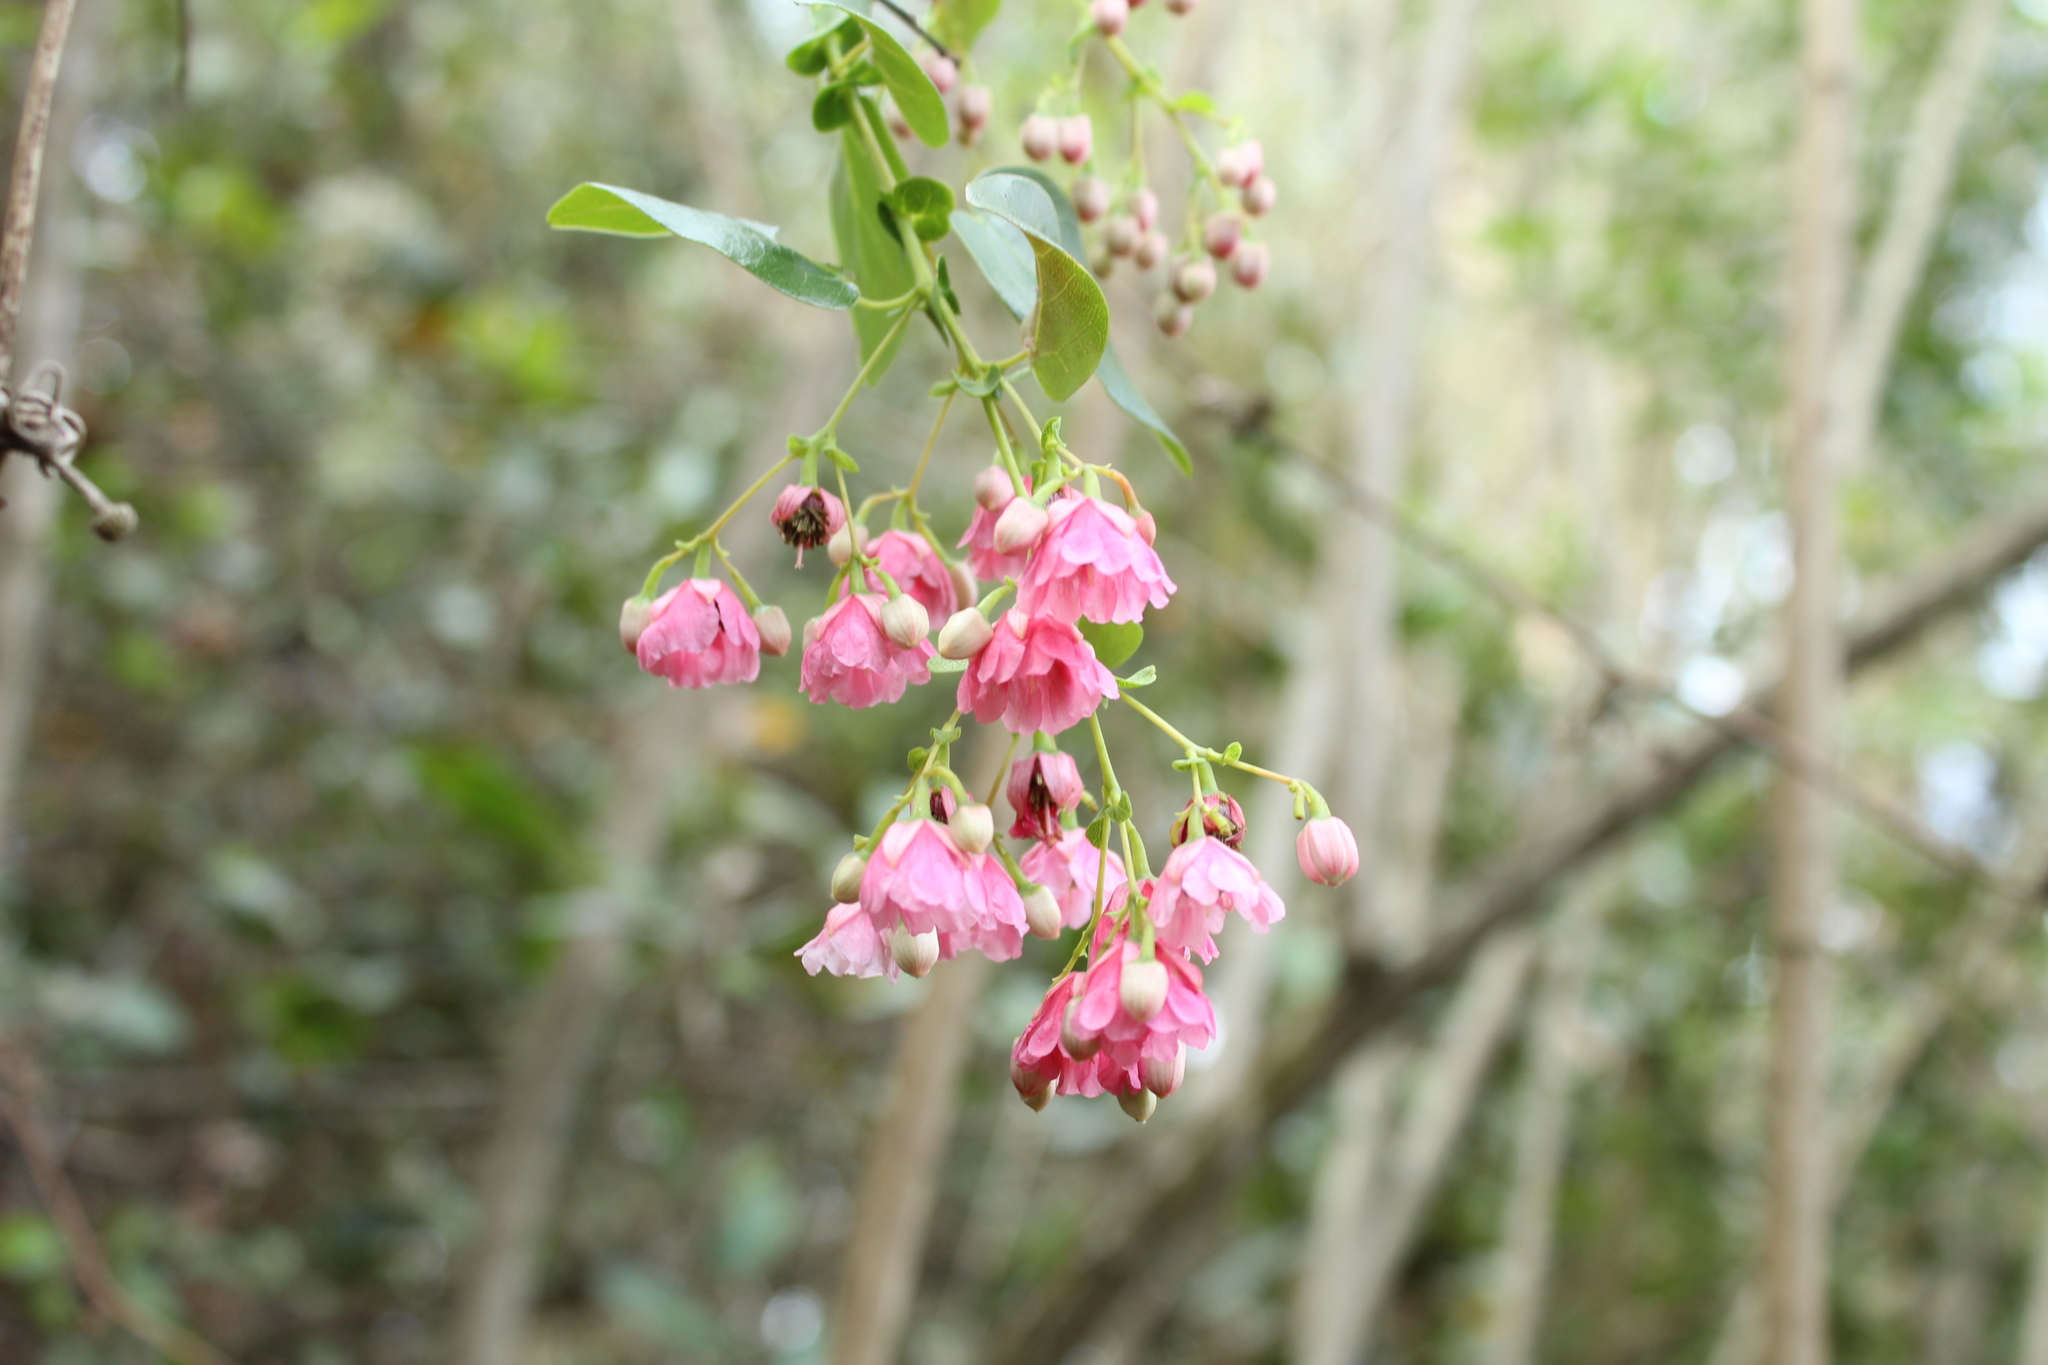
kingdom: Plantae
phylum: Tracheophyta
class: Magnoliopsida
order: Oxalidales
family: Elaeocarpaceae
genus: Vallea
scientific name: Vallea stipularis
